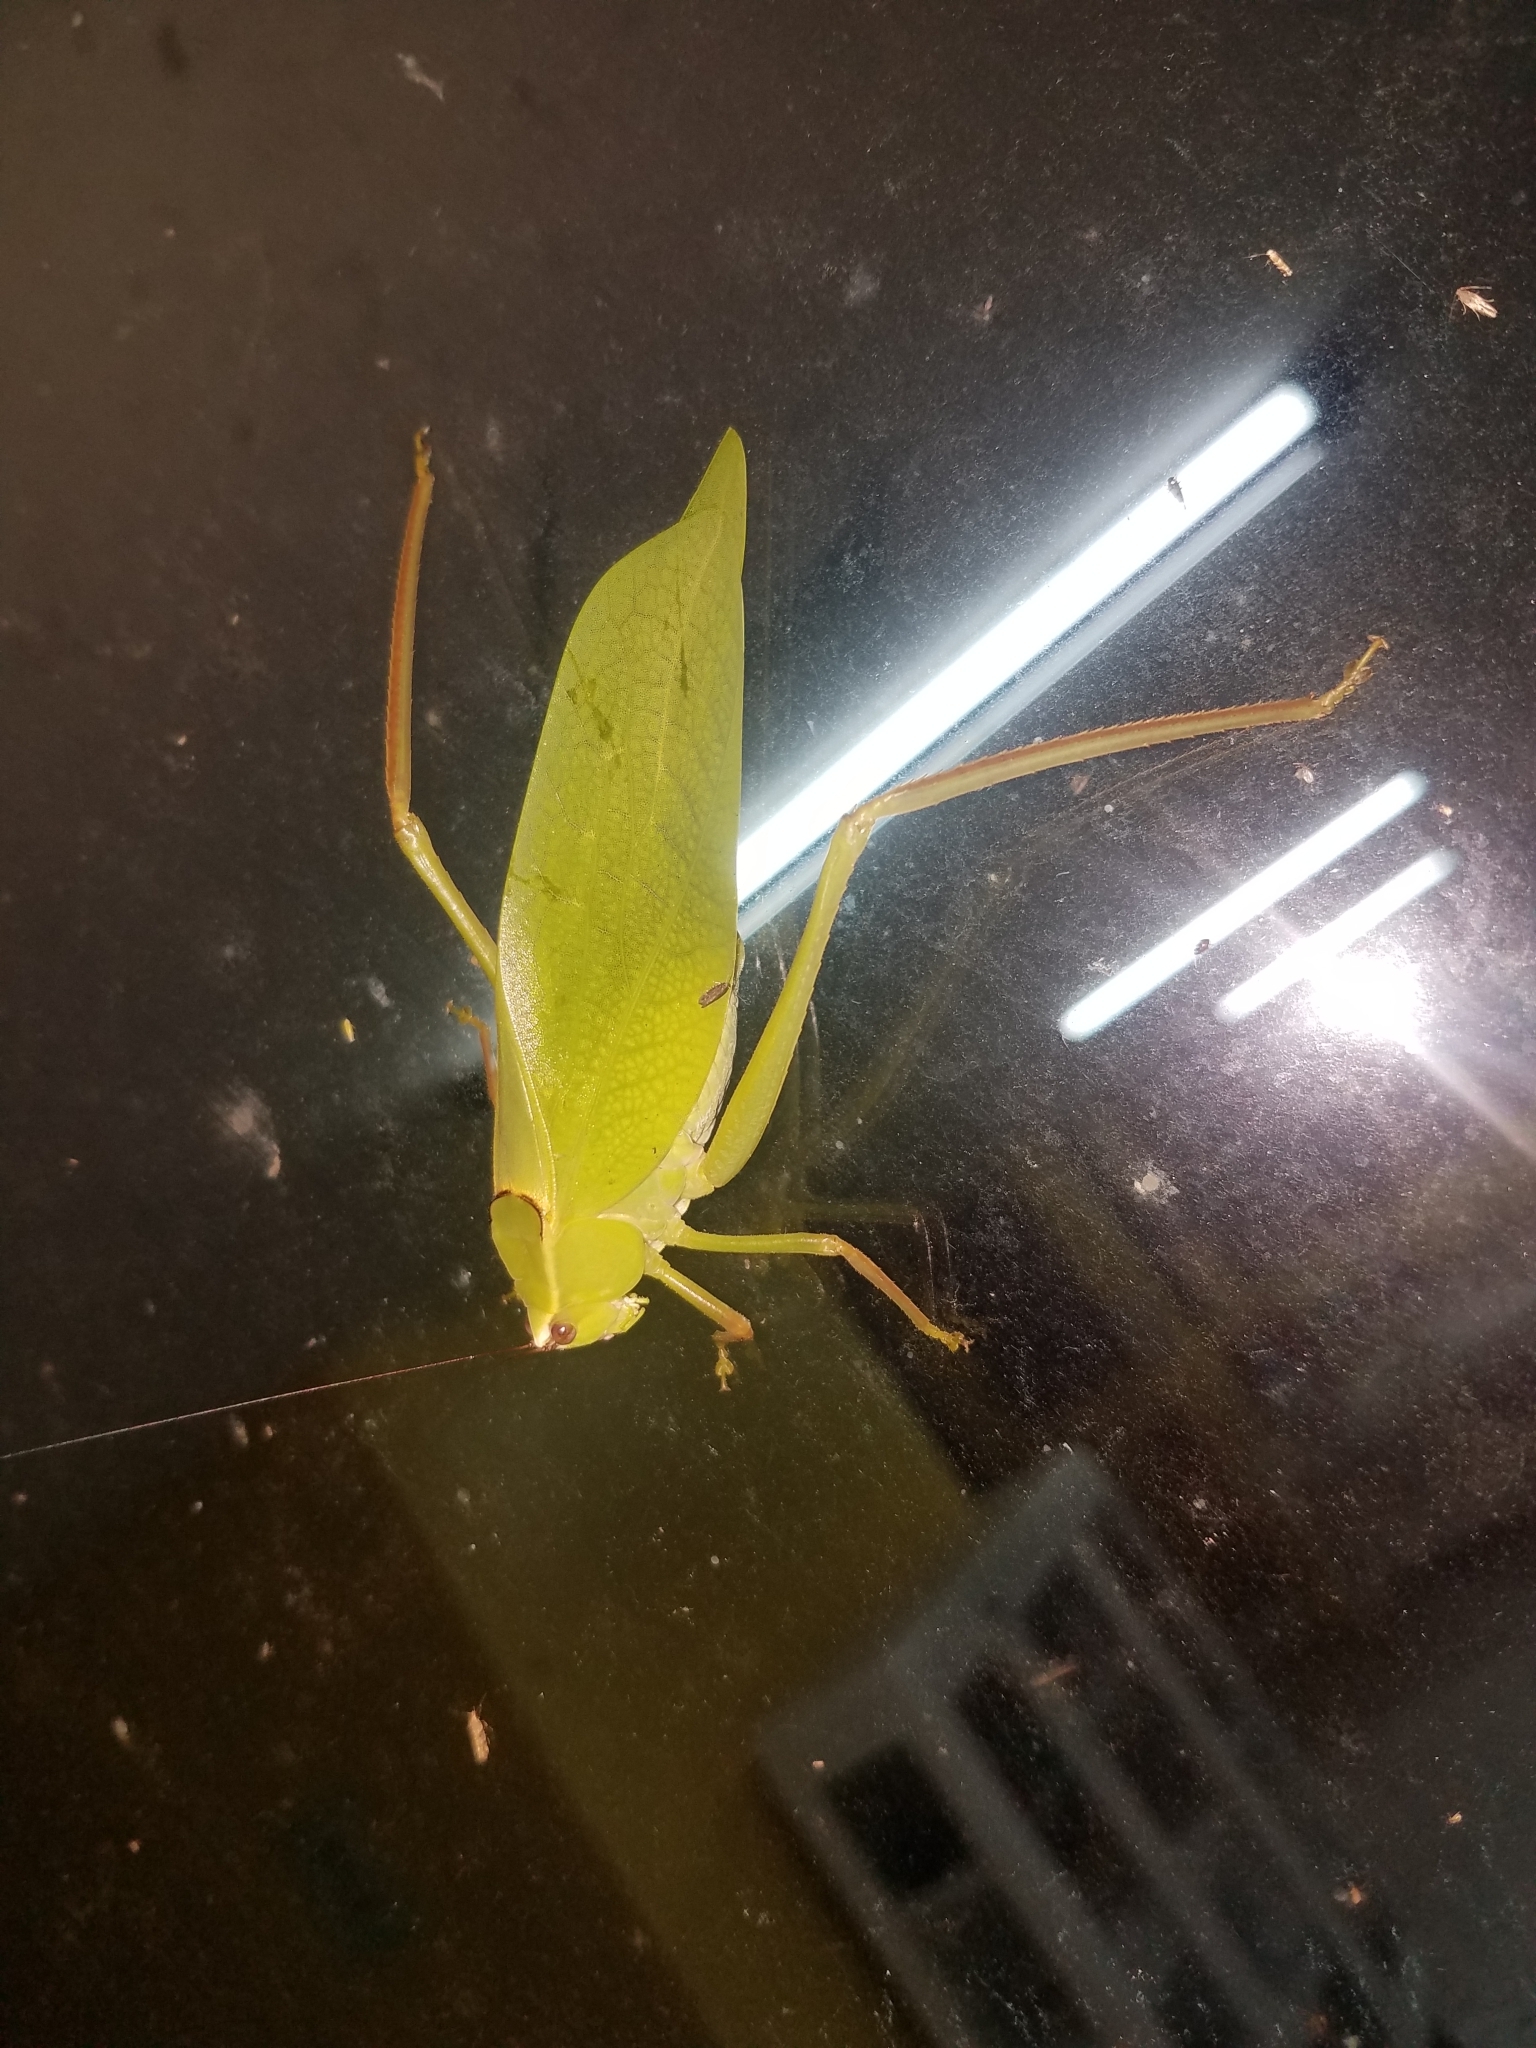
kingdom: Animalia
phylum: Arthropoda
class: Insecta
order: Orthoptera
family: Tettigoniidae
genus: Stilpnochlora
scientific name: Stilpnochlora quadrata
